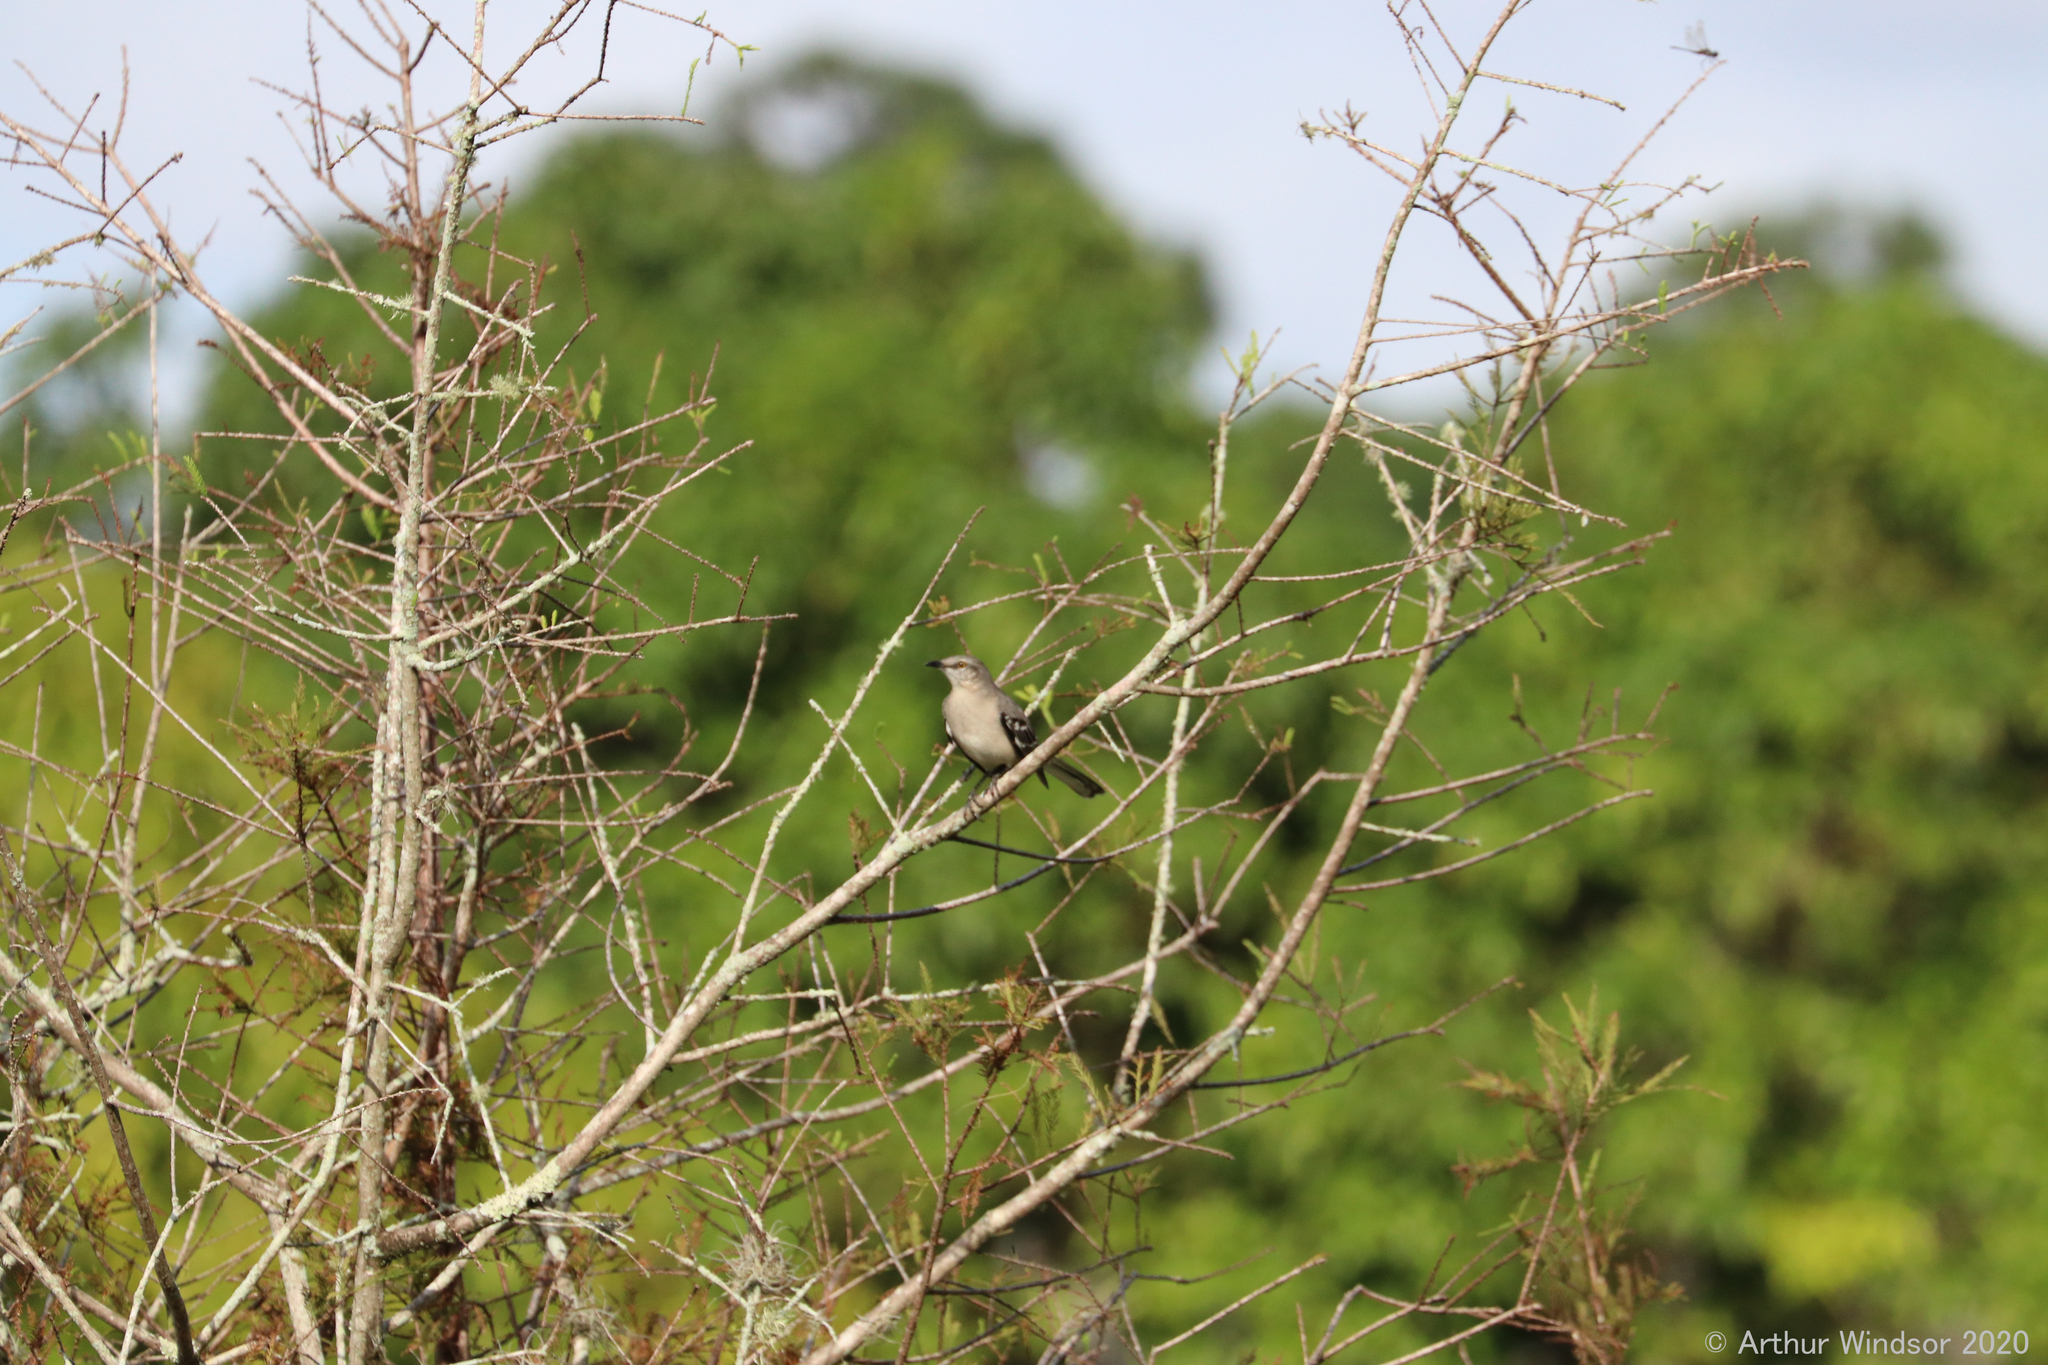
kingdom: Animalia
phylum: Chordata
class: Aves
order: Passeriformes
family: Mimidae
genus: Mimus
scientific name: Mimus polyglottos
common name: Northern mockingbird
